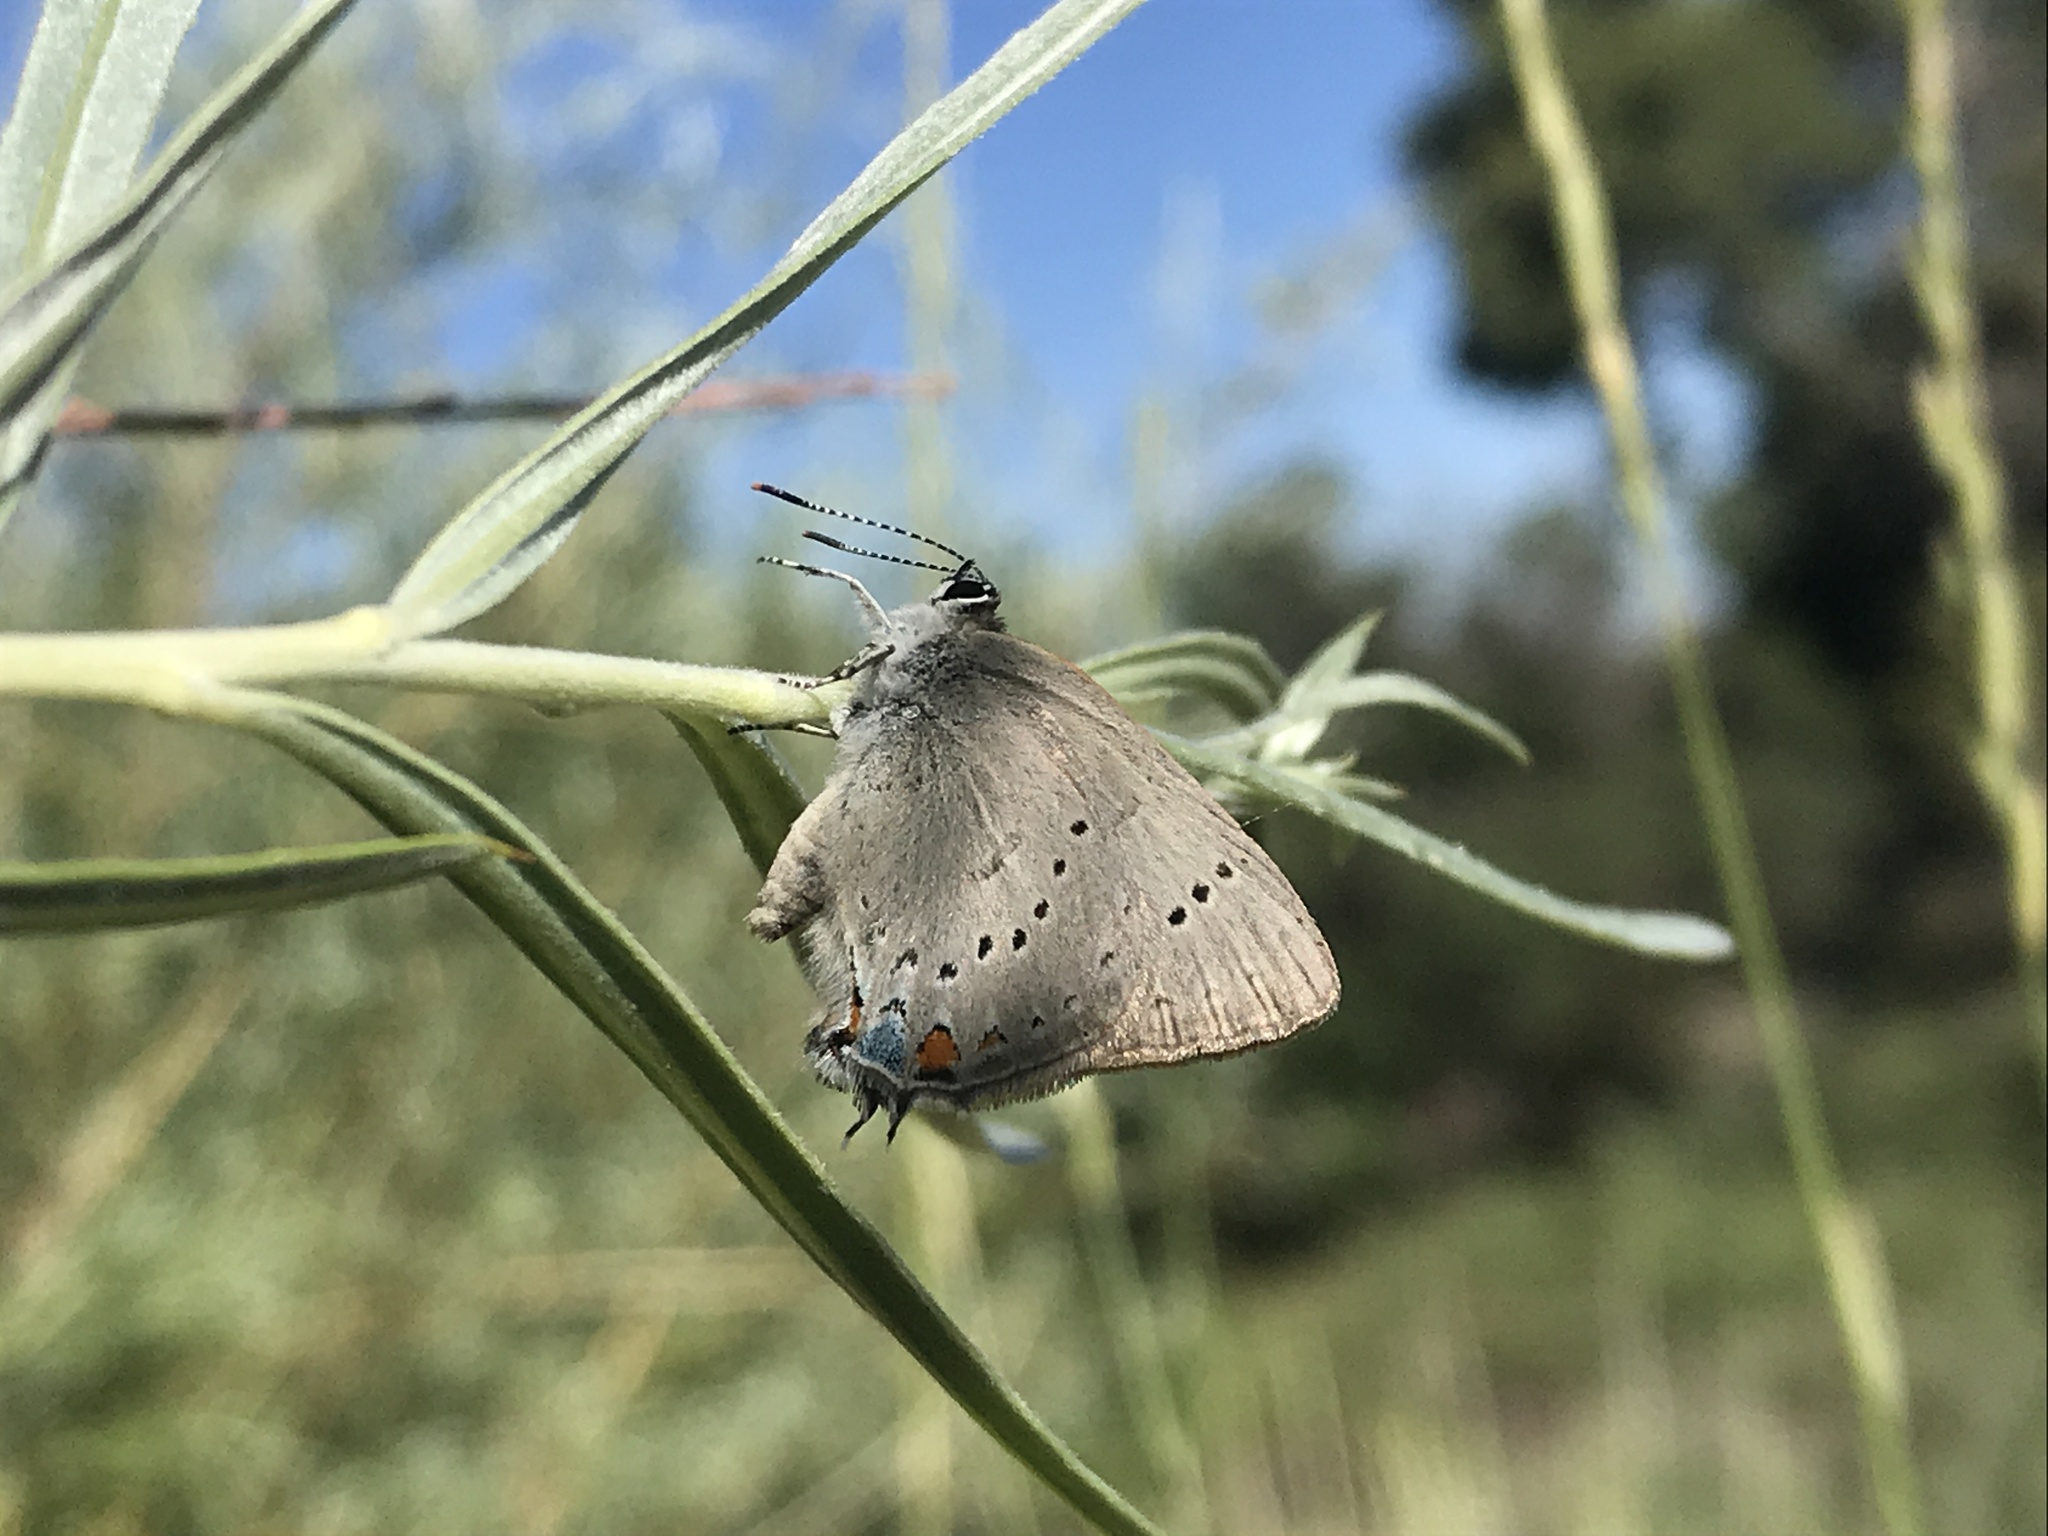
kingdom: Animalia
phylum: Arthropoda
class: Insecta
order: Lepidoptera
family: Lycaenidae
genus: Strymon
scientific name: Strymon sylvinus
